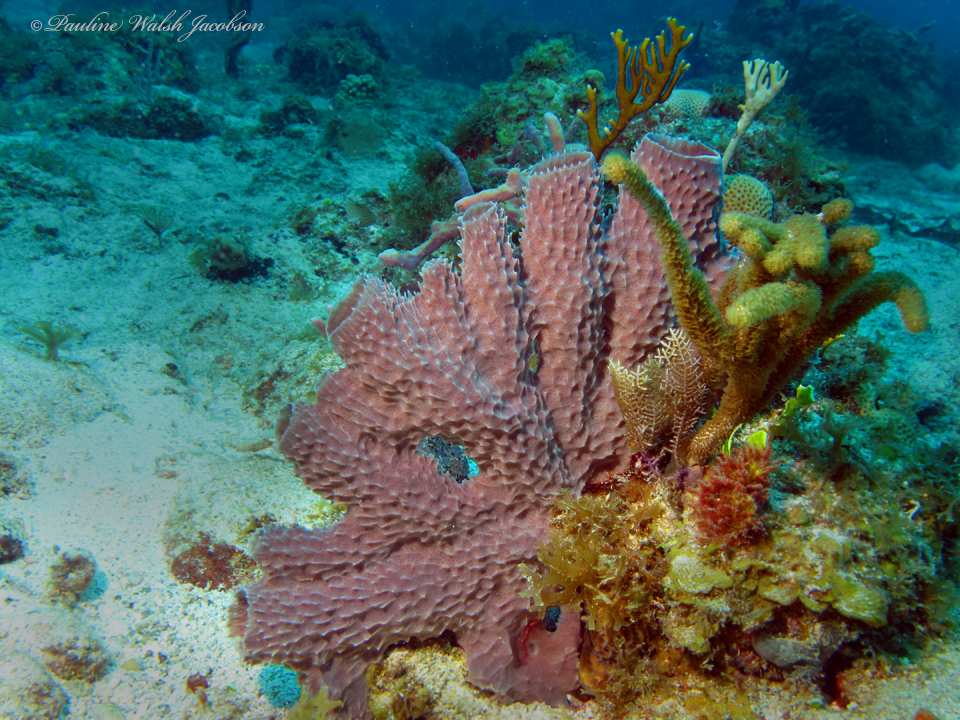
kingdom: Animalia
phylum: Porifera
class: Demospongiae
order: Haplosclerida
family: Callyspongiidae
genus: Callyspongia
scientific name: Callyspongia aculeata
